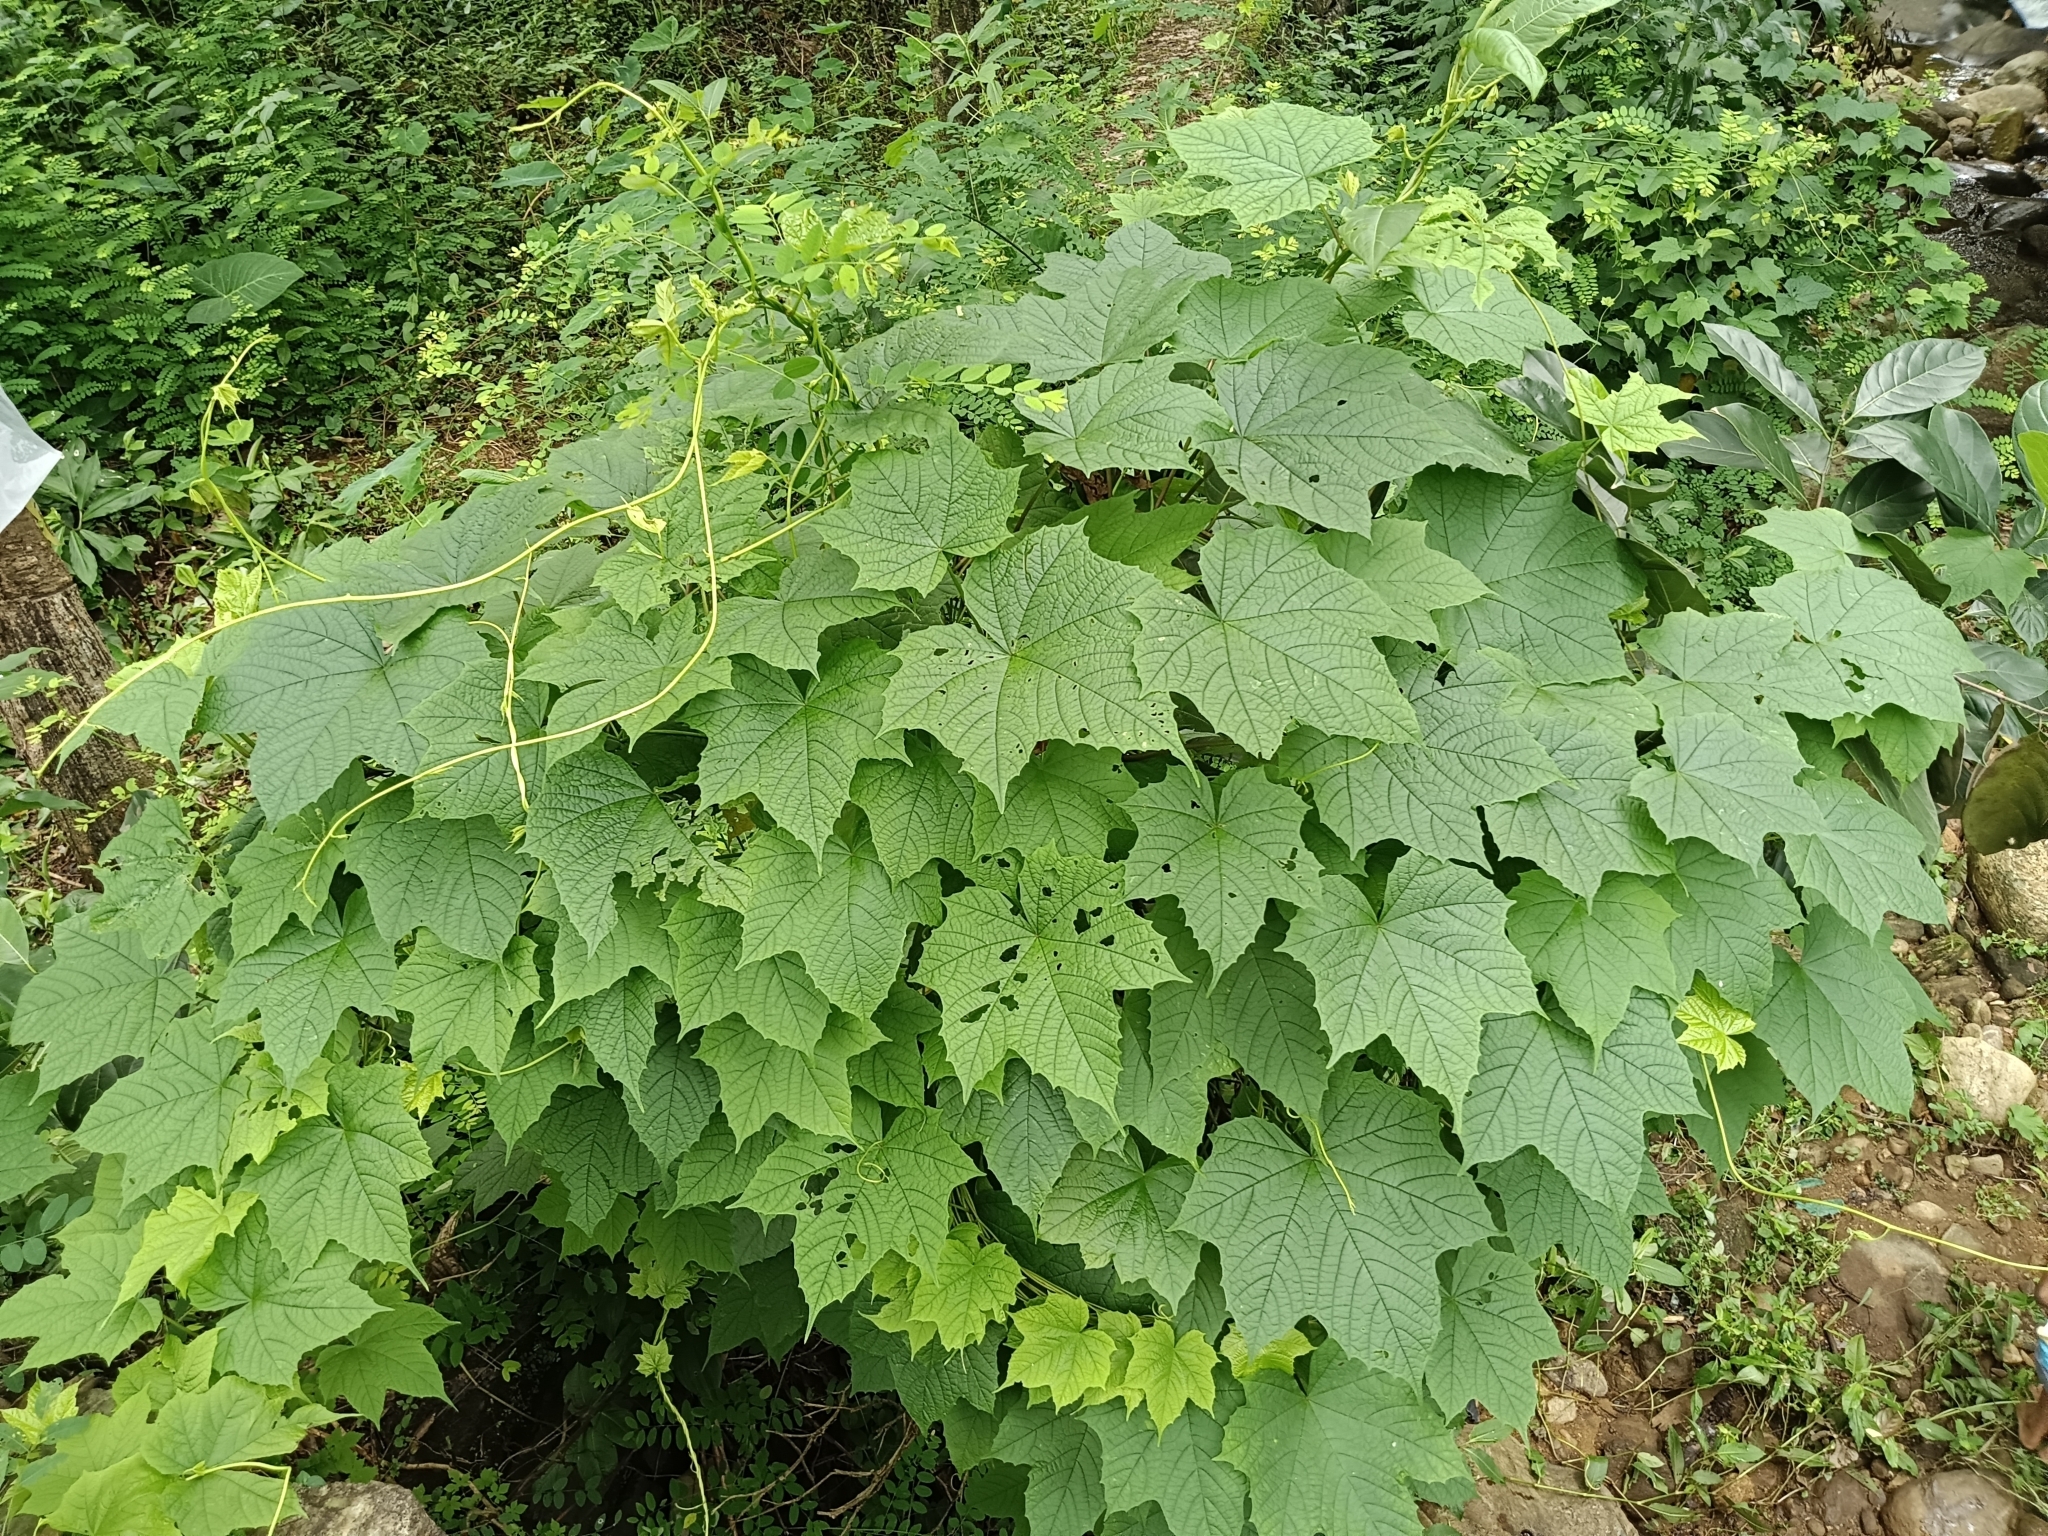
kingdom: Plantae
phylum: Tracheophyta
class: Magnoliopsida
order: Solanales
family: Convolvulaceae
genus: Distimake
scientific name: Distimake
